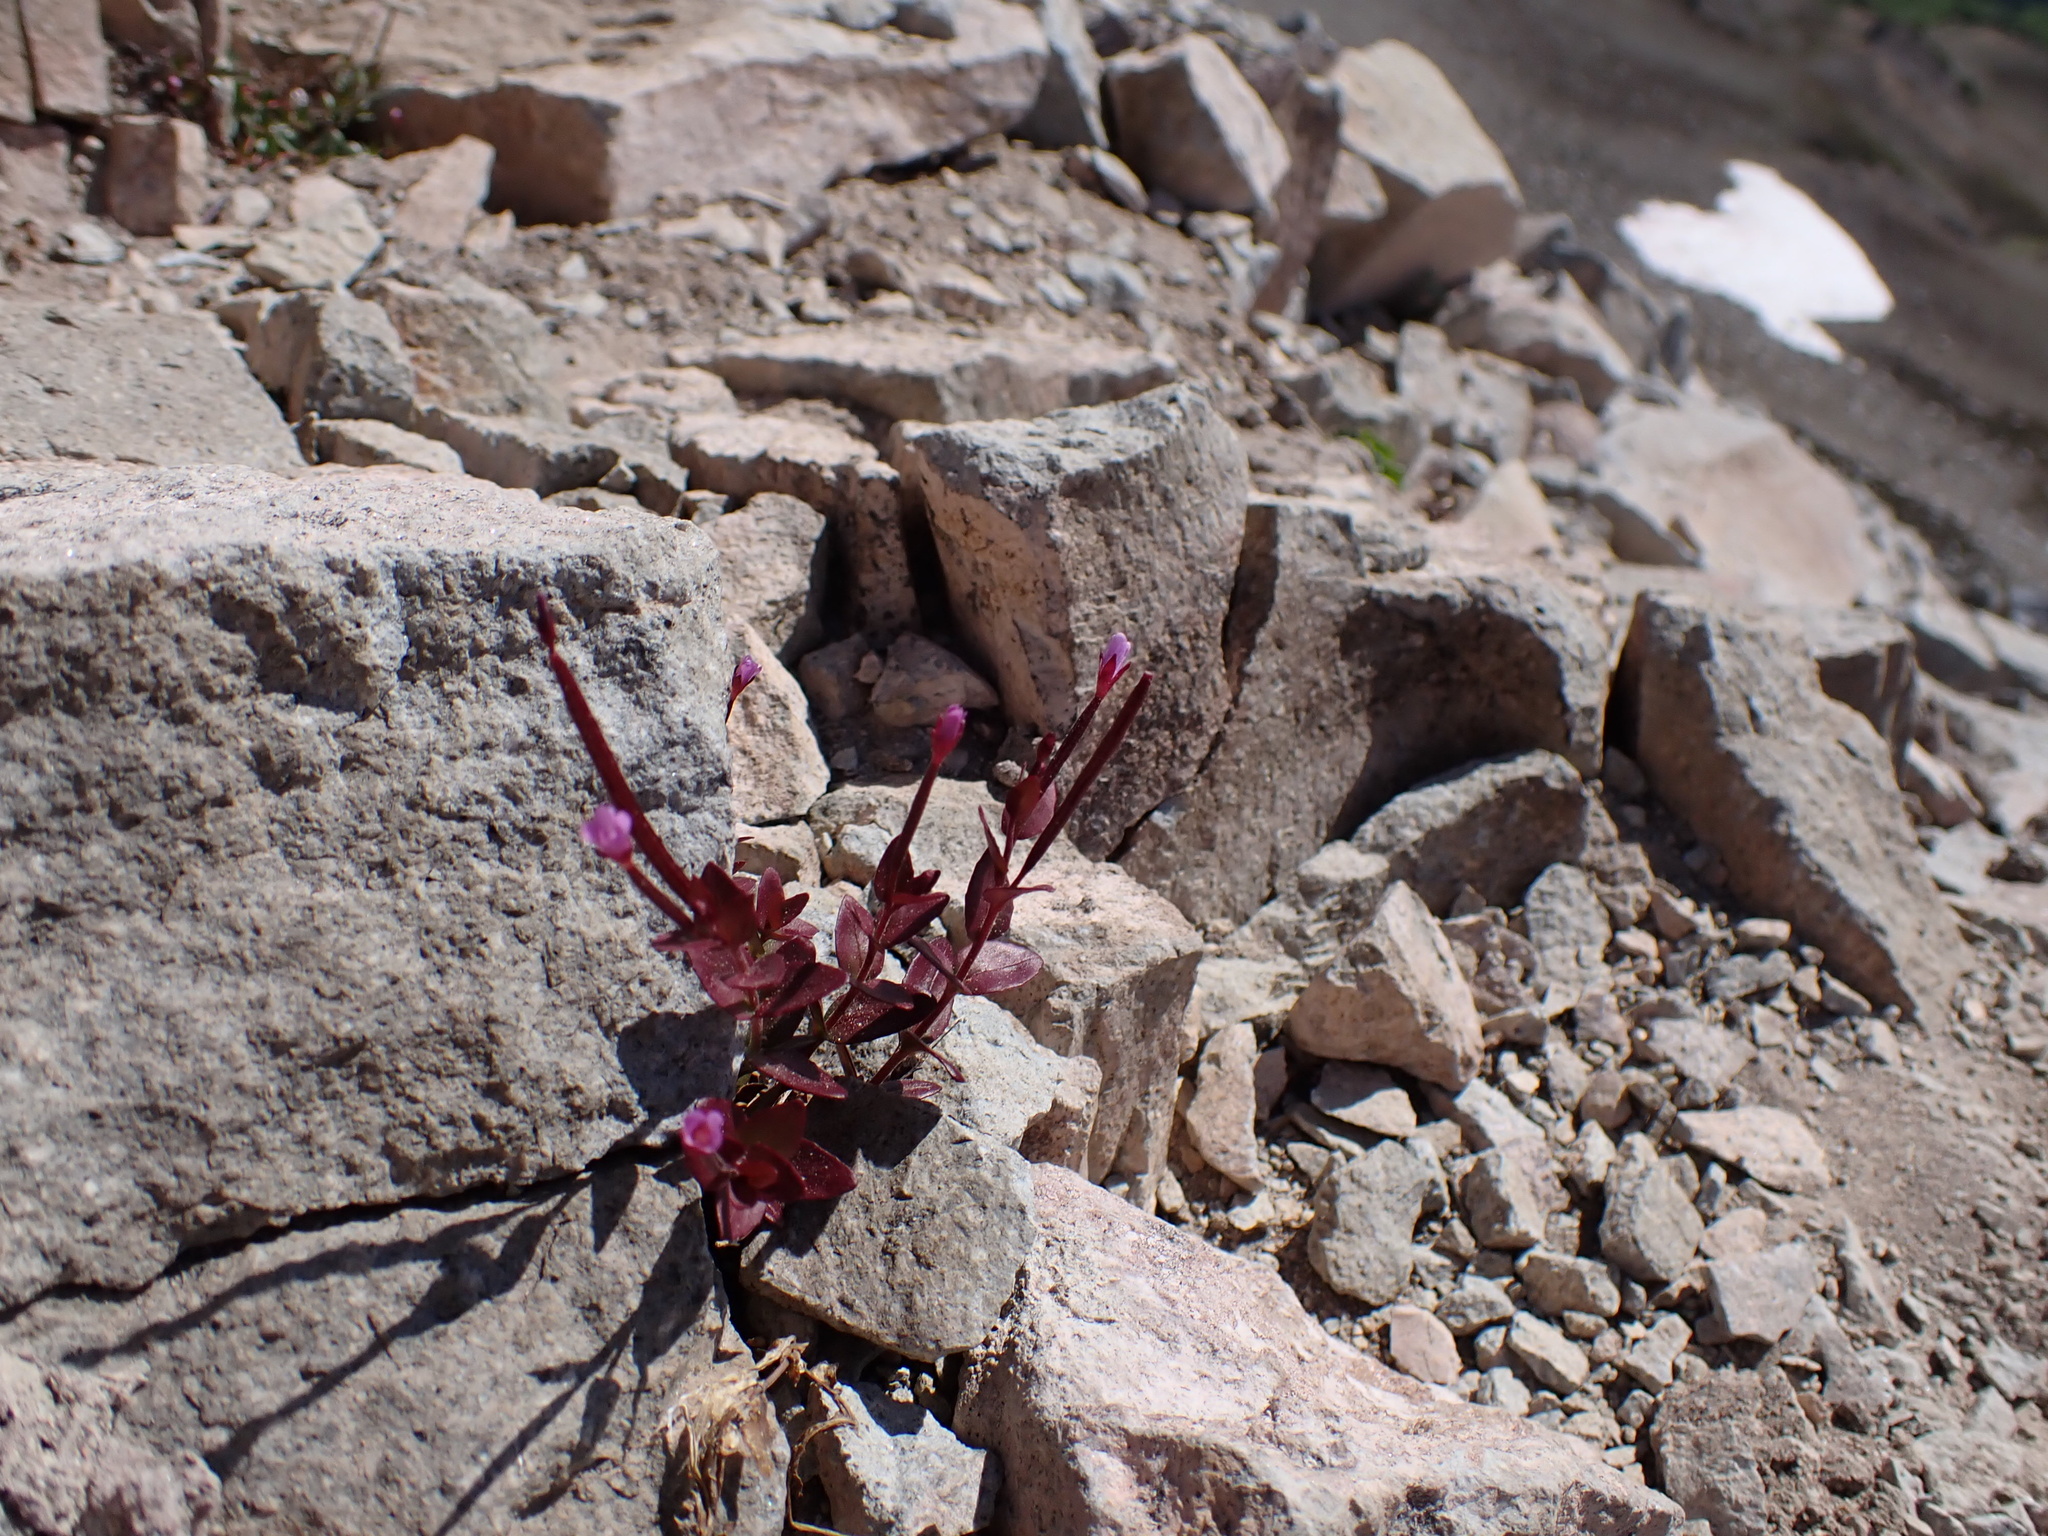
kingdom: Plantae
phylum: Tracheophyta
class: Magnoliopsida
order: Myrtales
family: Onagraceae
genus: Epilobium
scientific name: Epilobium minutum
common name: Chaparral willowherb
